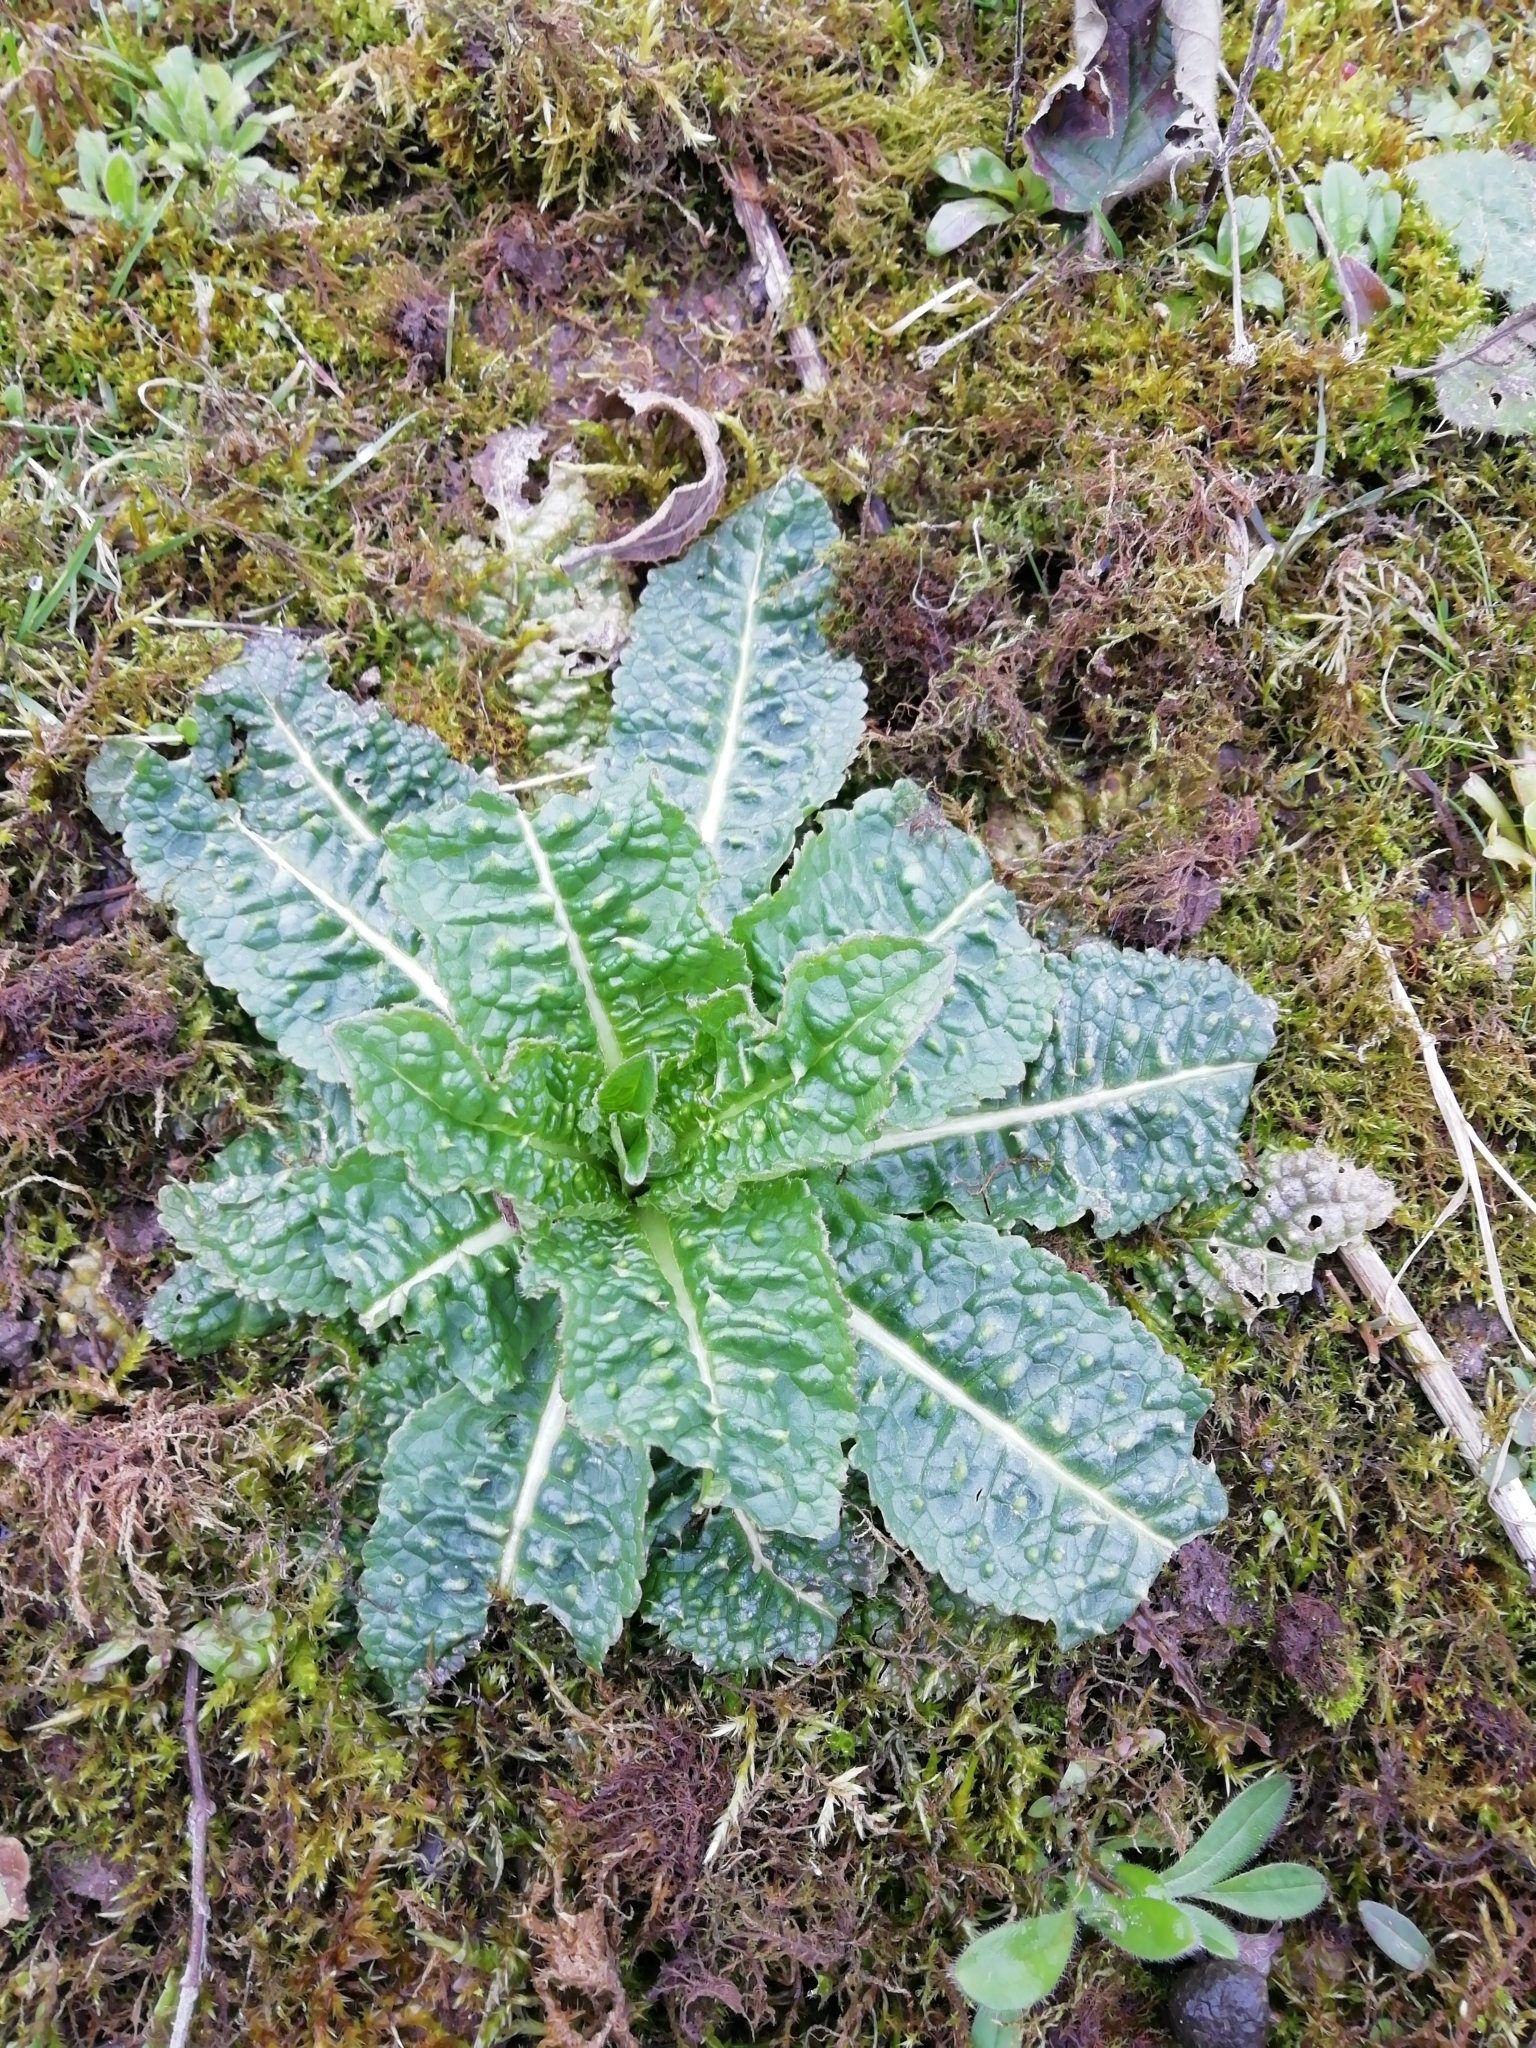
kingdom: Plantae
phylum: Tracheophyta
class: Magnoliopsida
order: Dipsacales
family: Caprifoliaceae
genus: Dipsacus
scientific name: Dipsacus fullonum
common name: Teasel
